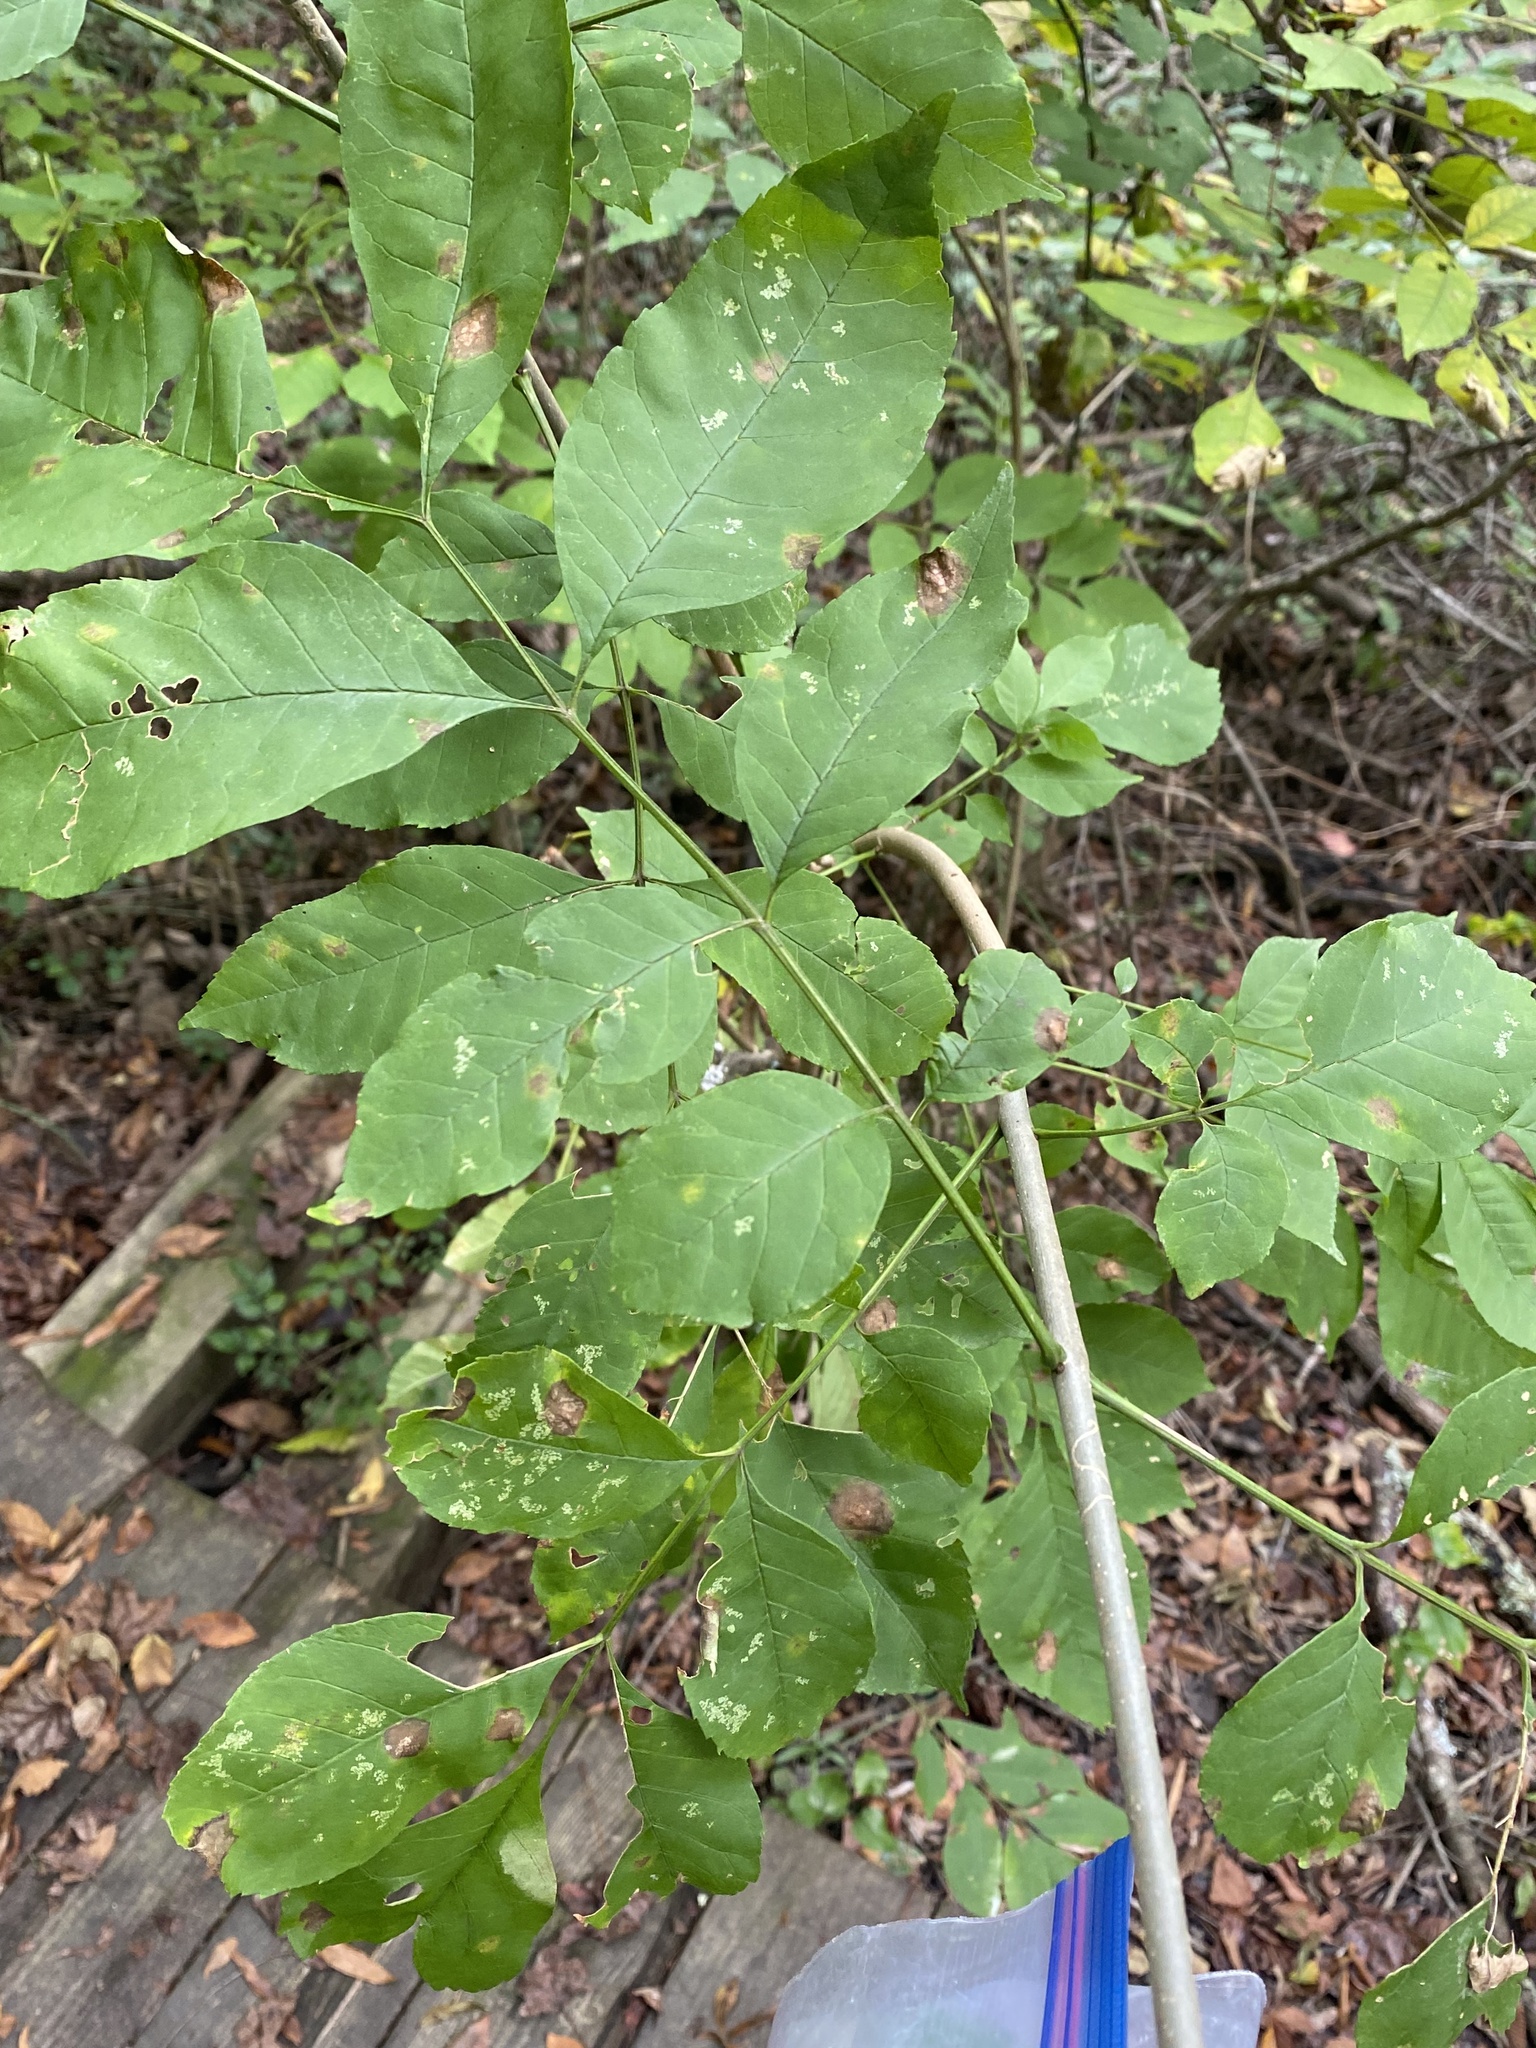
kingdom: Animalia
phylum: Arthropoda
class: Insecta
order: Lepidoptera
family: Gracillariidae
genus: Marmara
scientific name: Marmara fraxinicola
